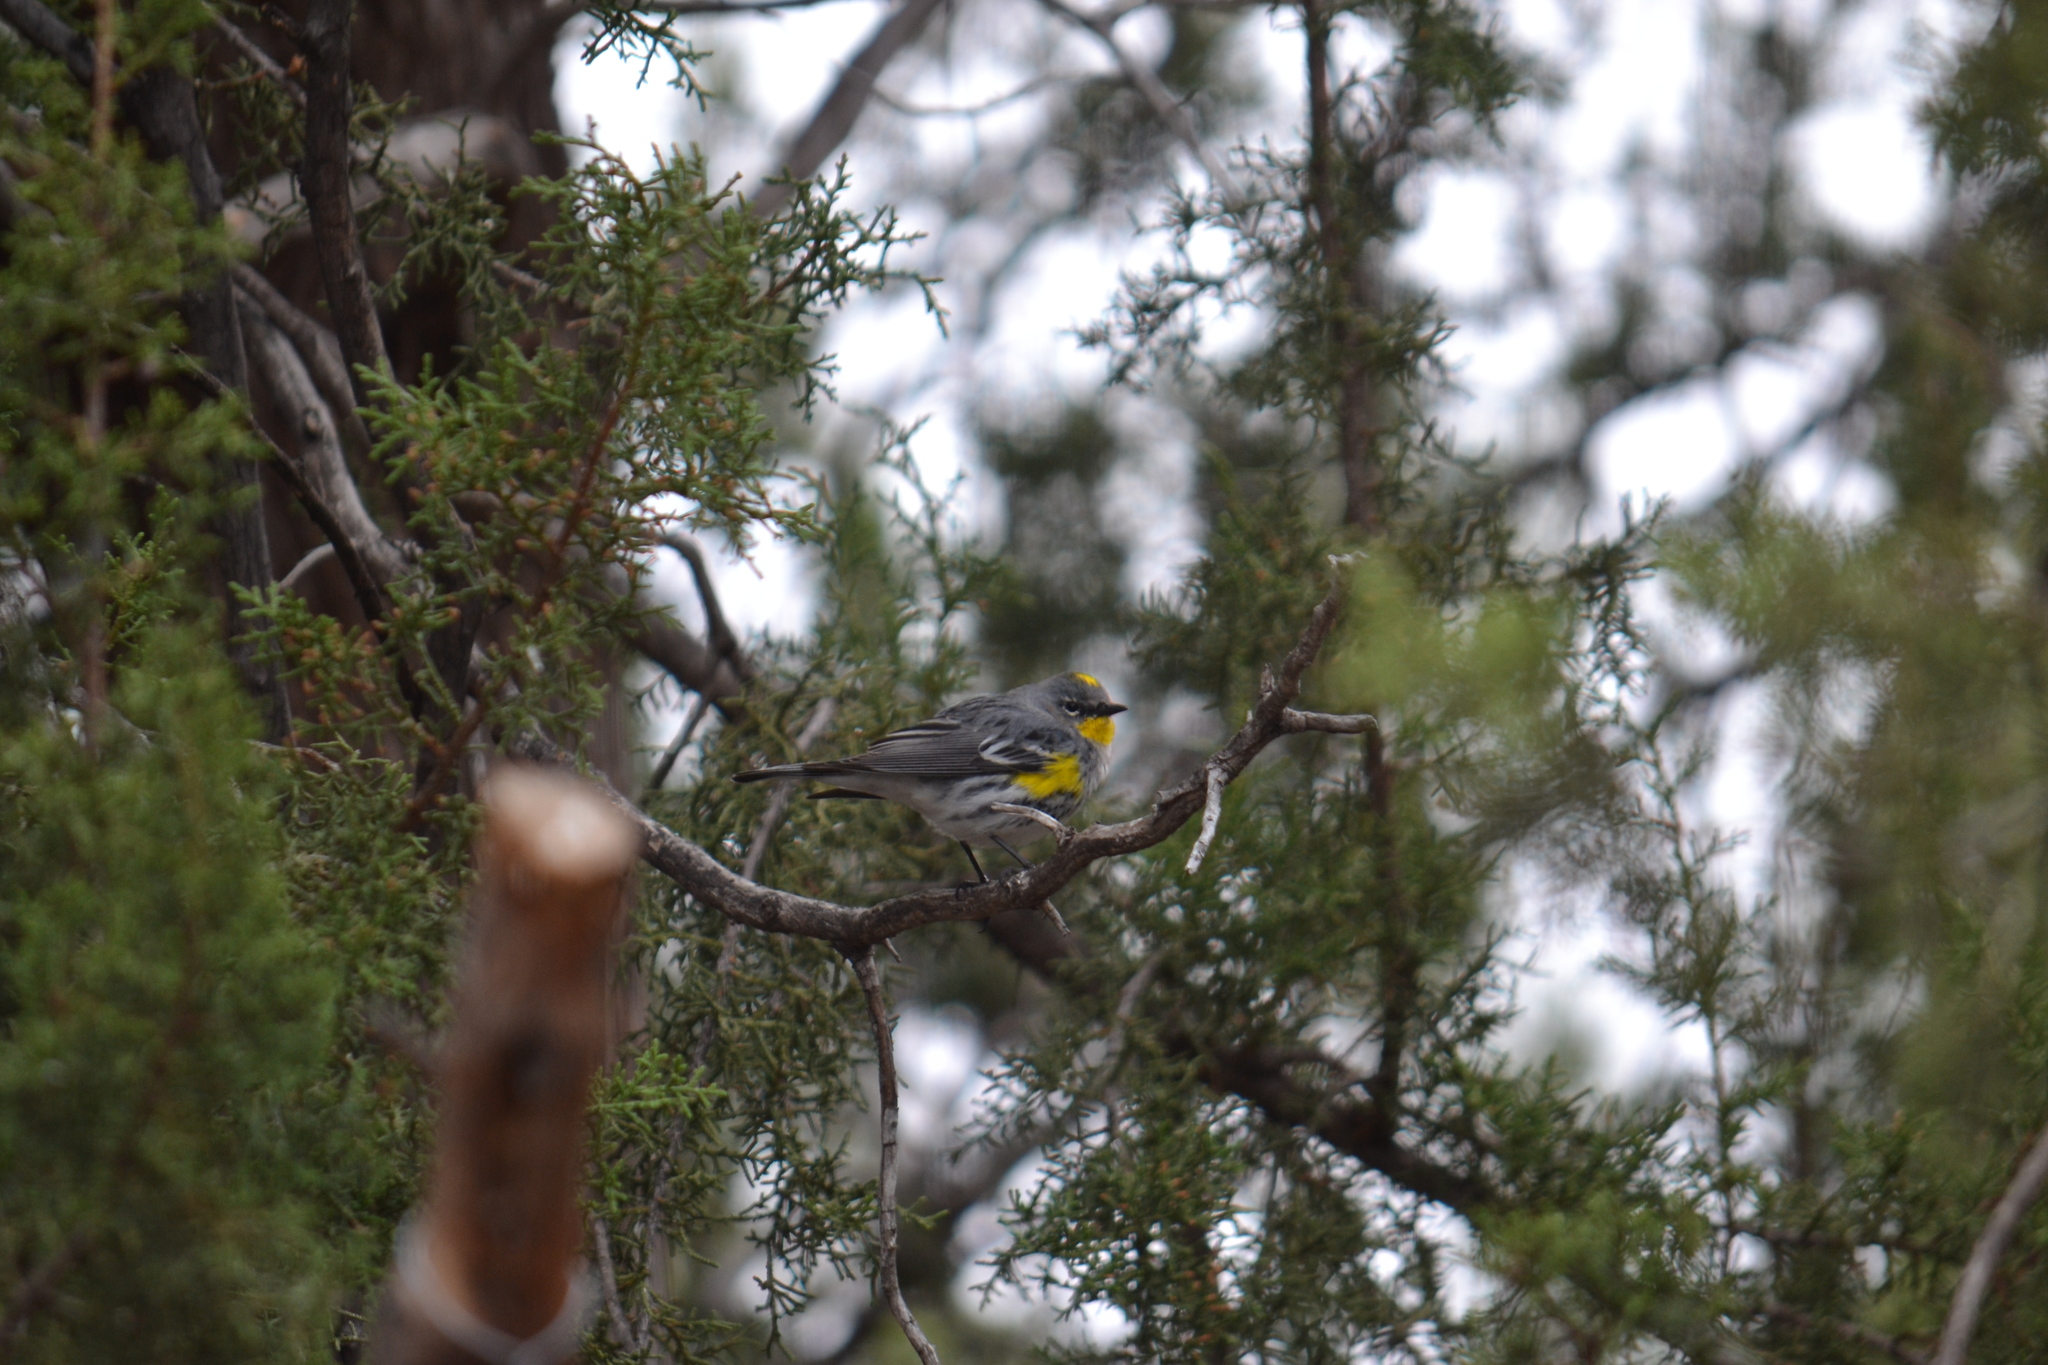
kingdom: Animalia
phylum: Chordata
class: Aves
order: Passeriformes
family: Parulidae
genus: Setophaga
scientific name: Setophaga coronata
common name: Myrtle warbler
